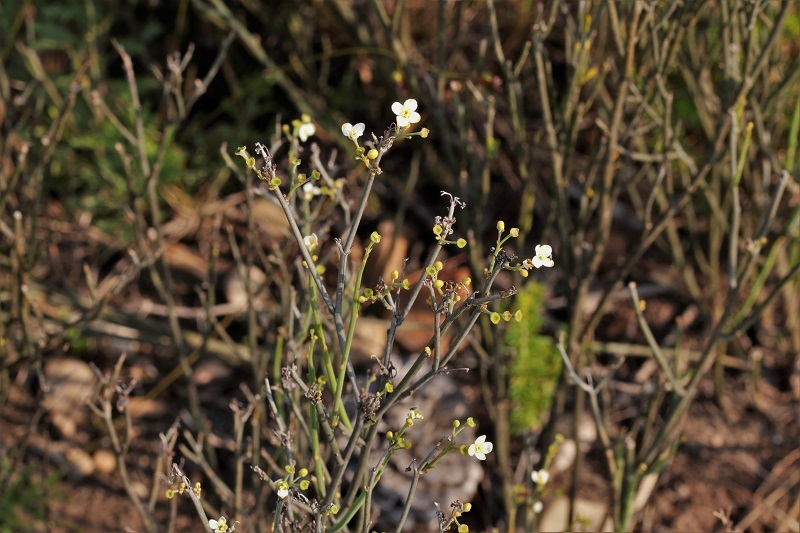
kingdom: Plantae
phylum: Tracheophyta
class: Magnoliopsida
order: Solanales
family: Montiniaceae
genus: Montinia
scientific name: Montinia caryophyllacea
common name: Wild clove-bush
